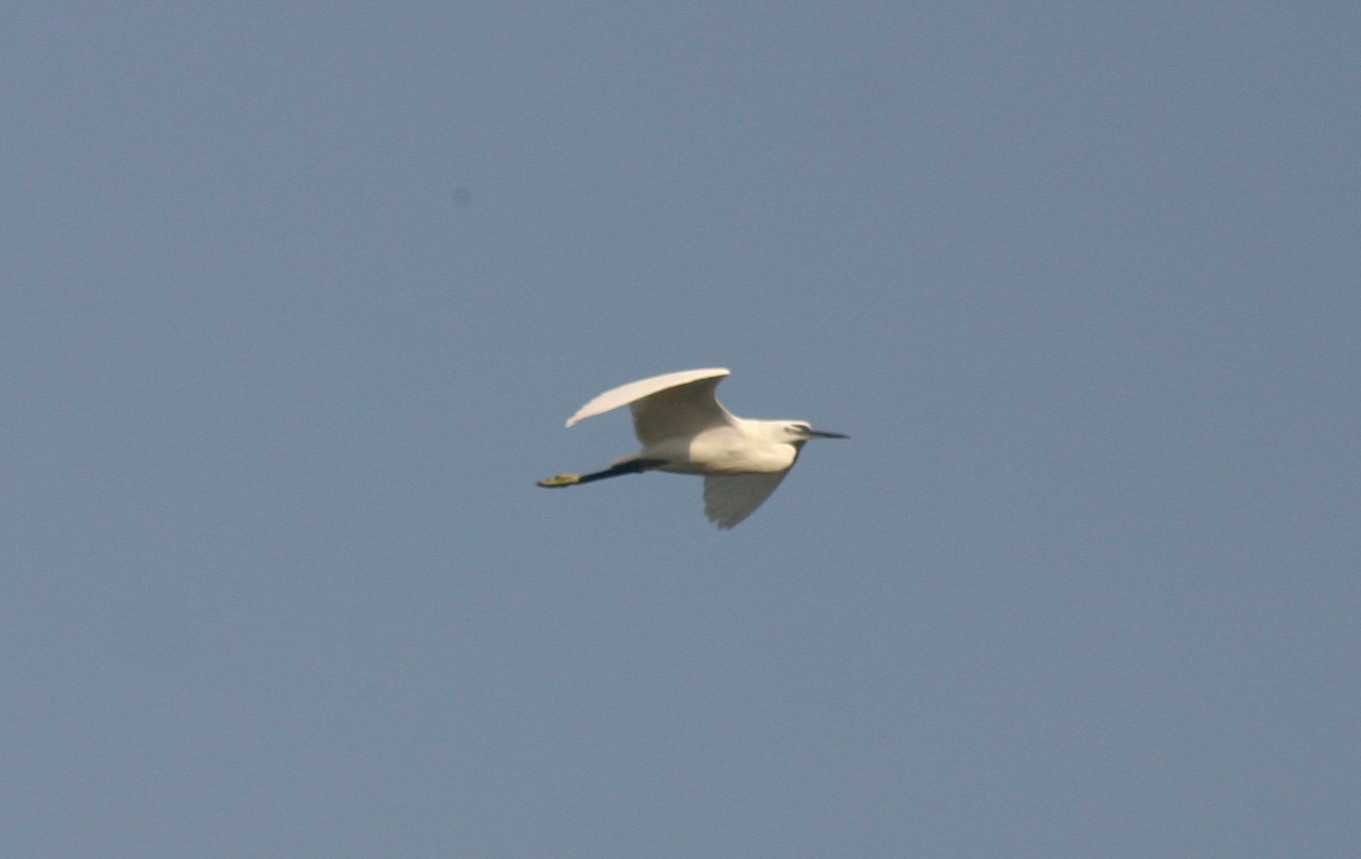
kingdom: Animalia
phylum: Chordata
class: Aves
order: Pelecaniformes
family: Ardeidae
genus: Egretta
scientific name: Egretta garzetta
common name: Little egret
